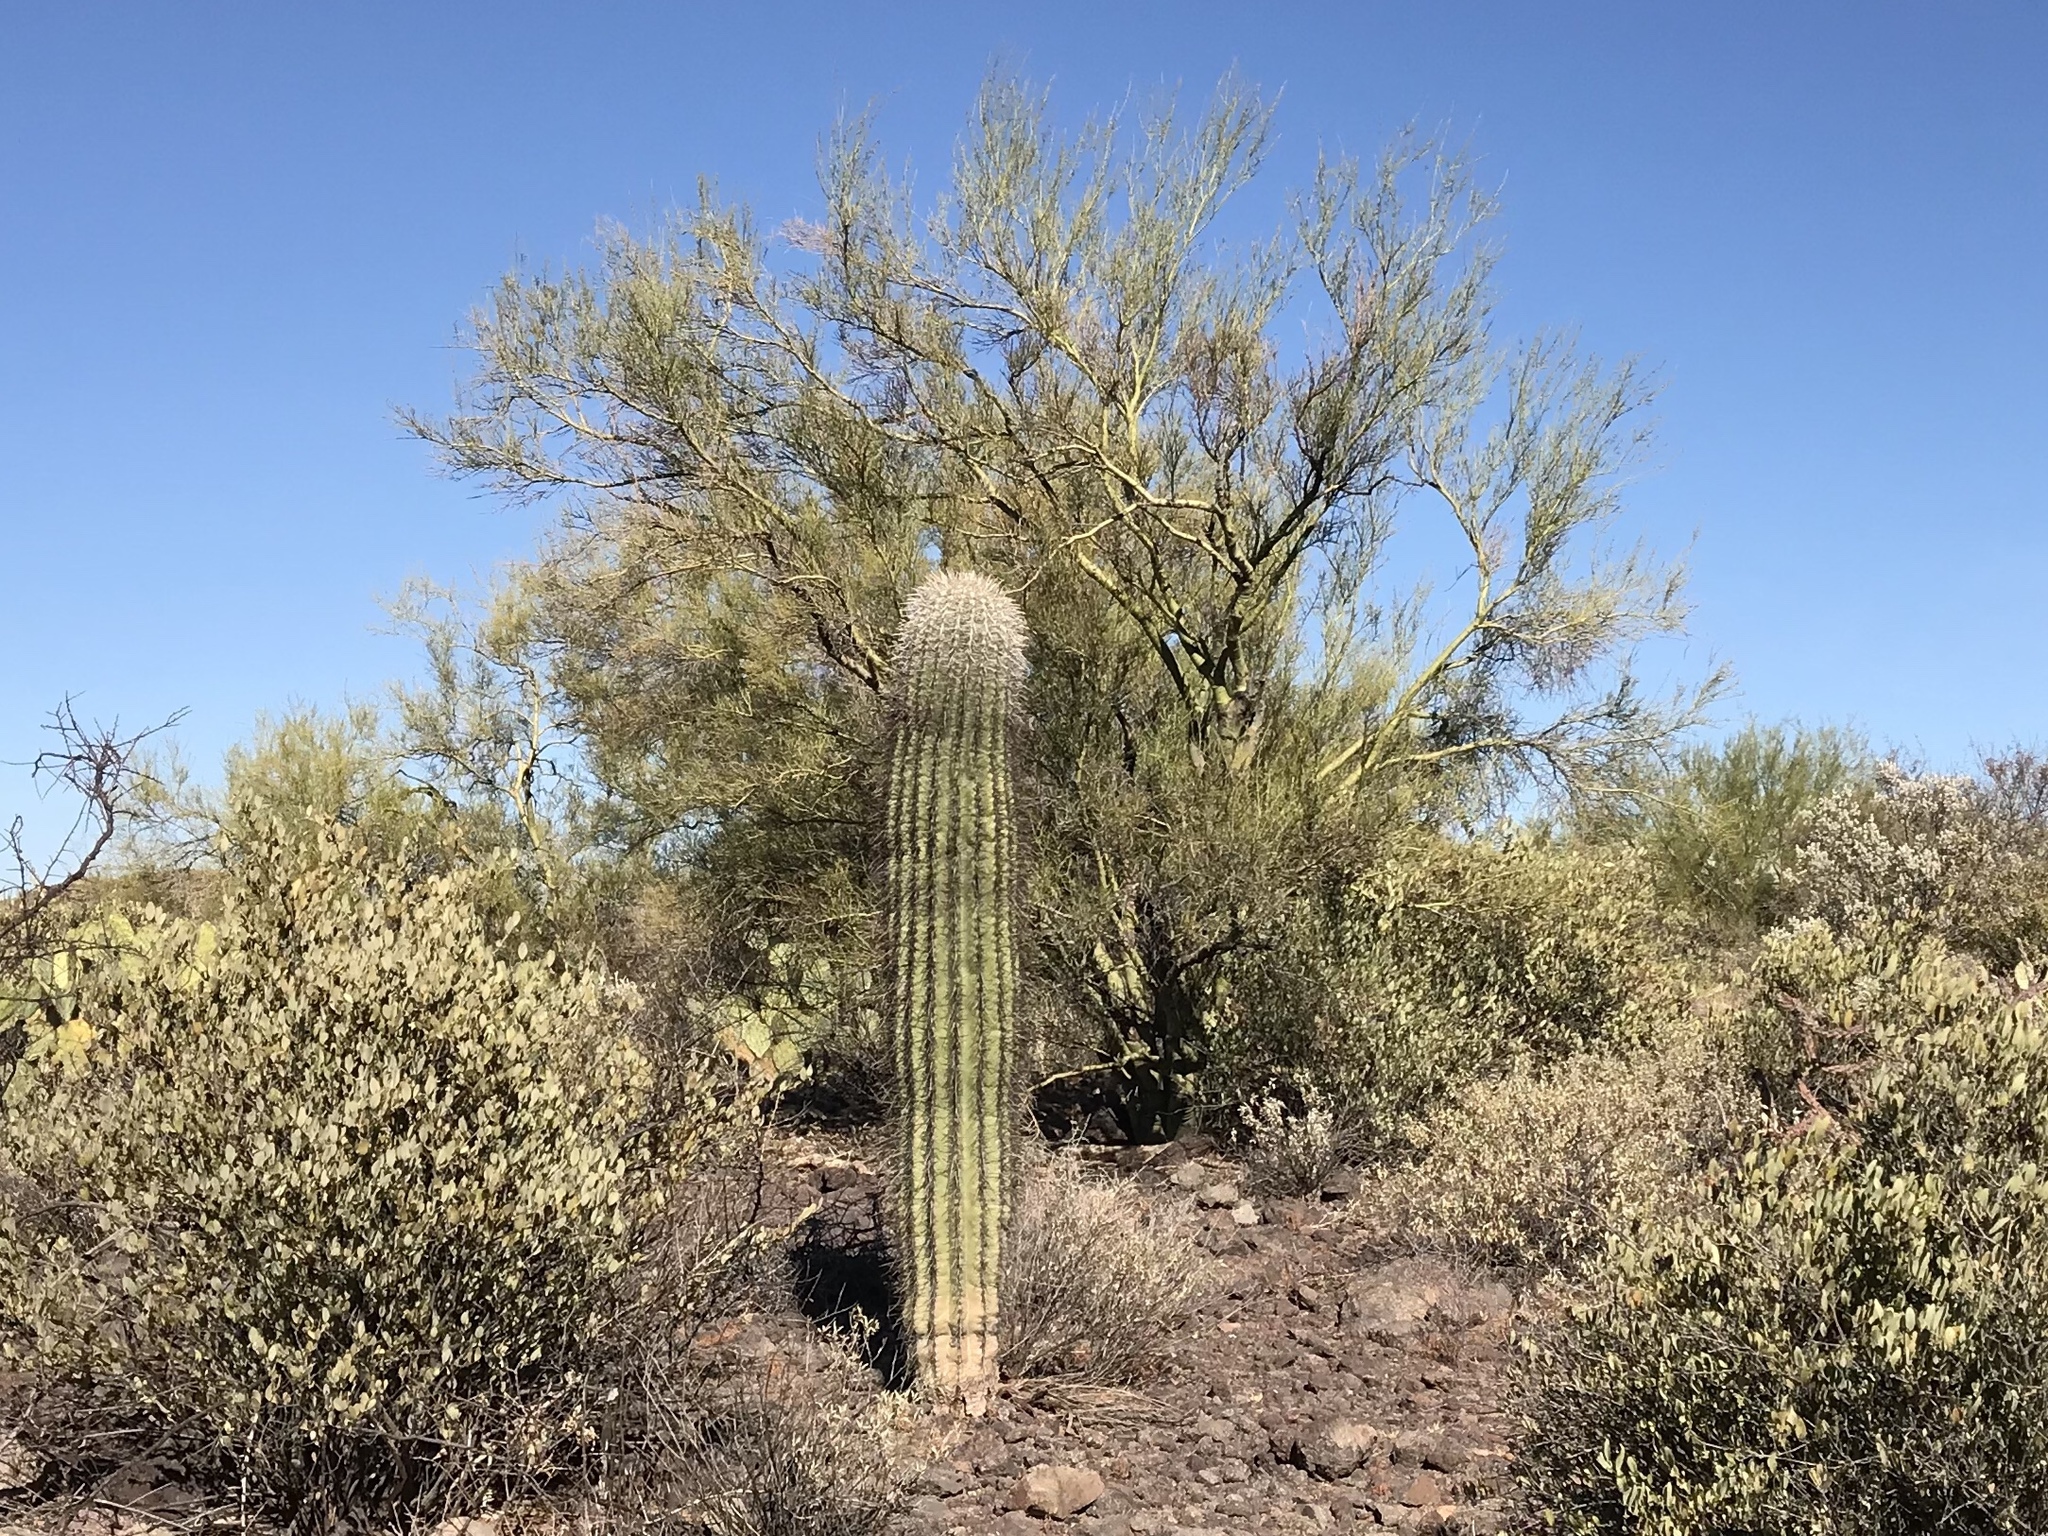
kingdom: Plantae
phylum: Tracheophyta
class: Magnoliopsida
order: Caryophyllales
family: Cactaceae
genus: Carnegiea
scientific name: Carnegiea gigantea
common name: Saguaro
